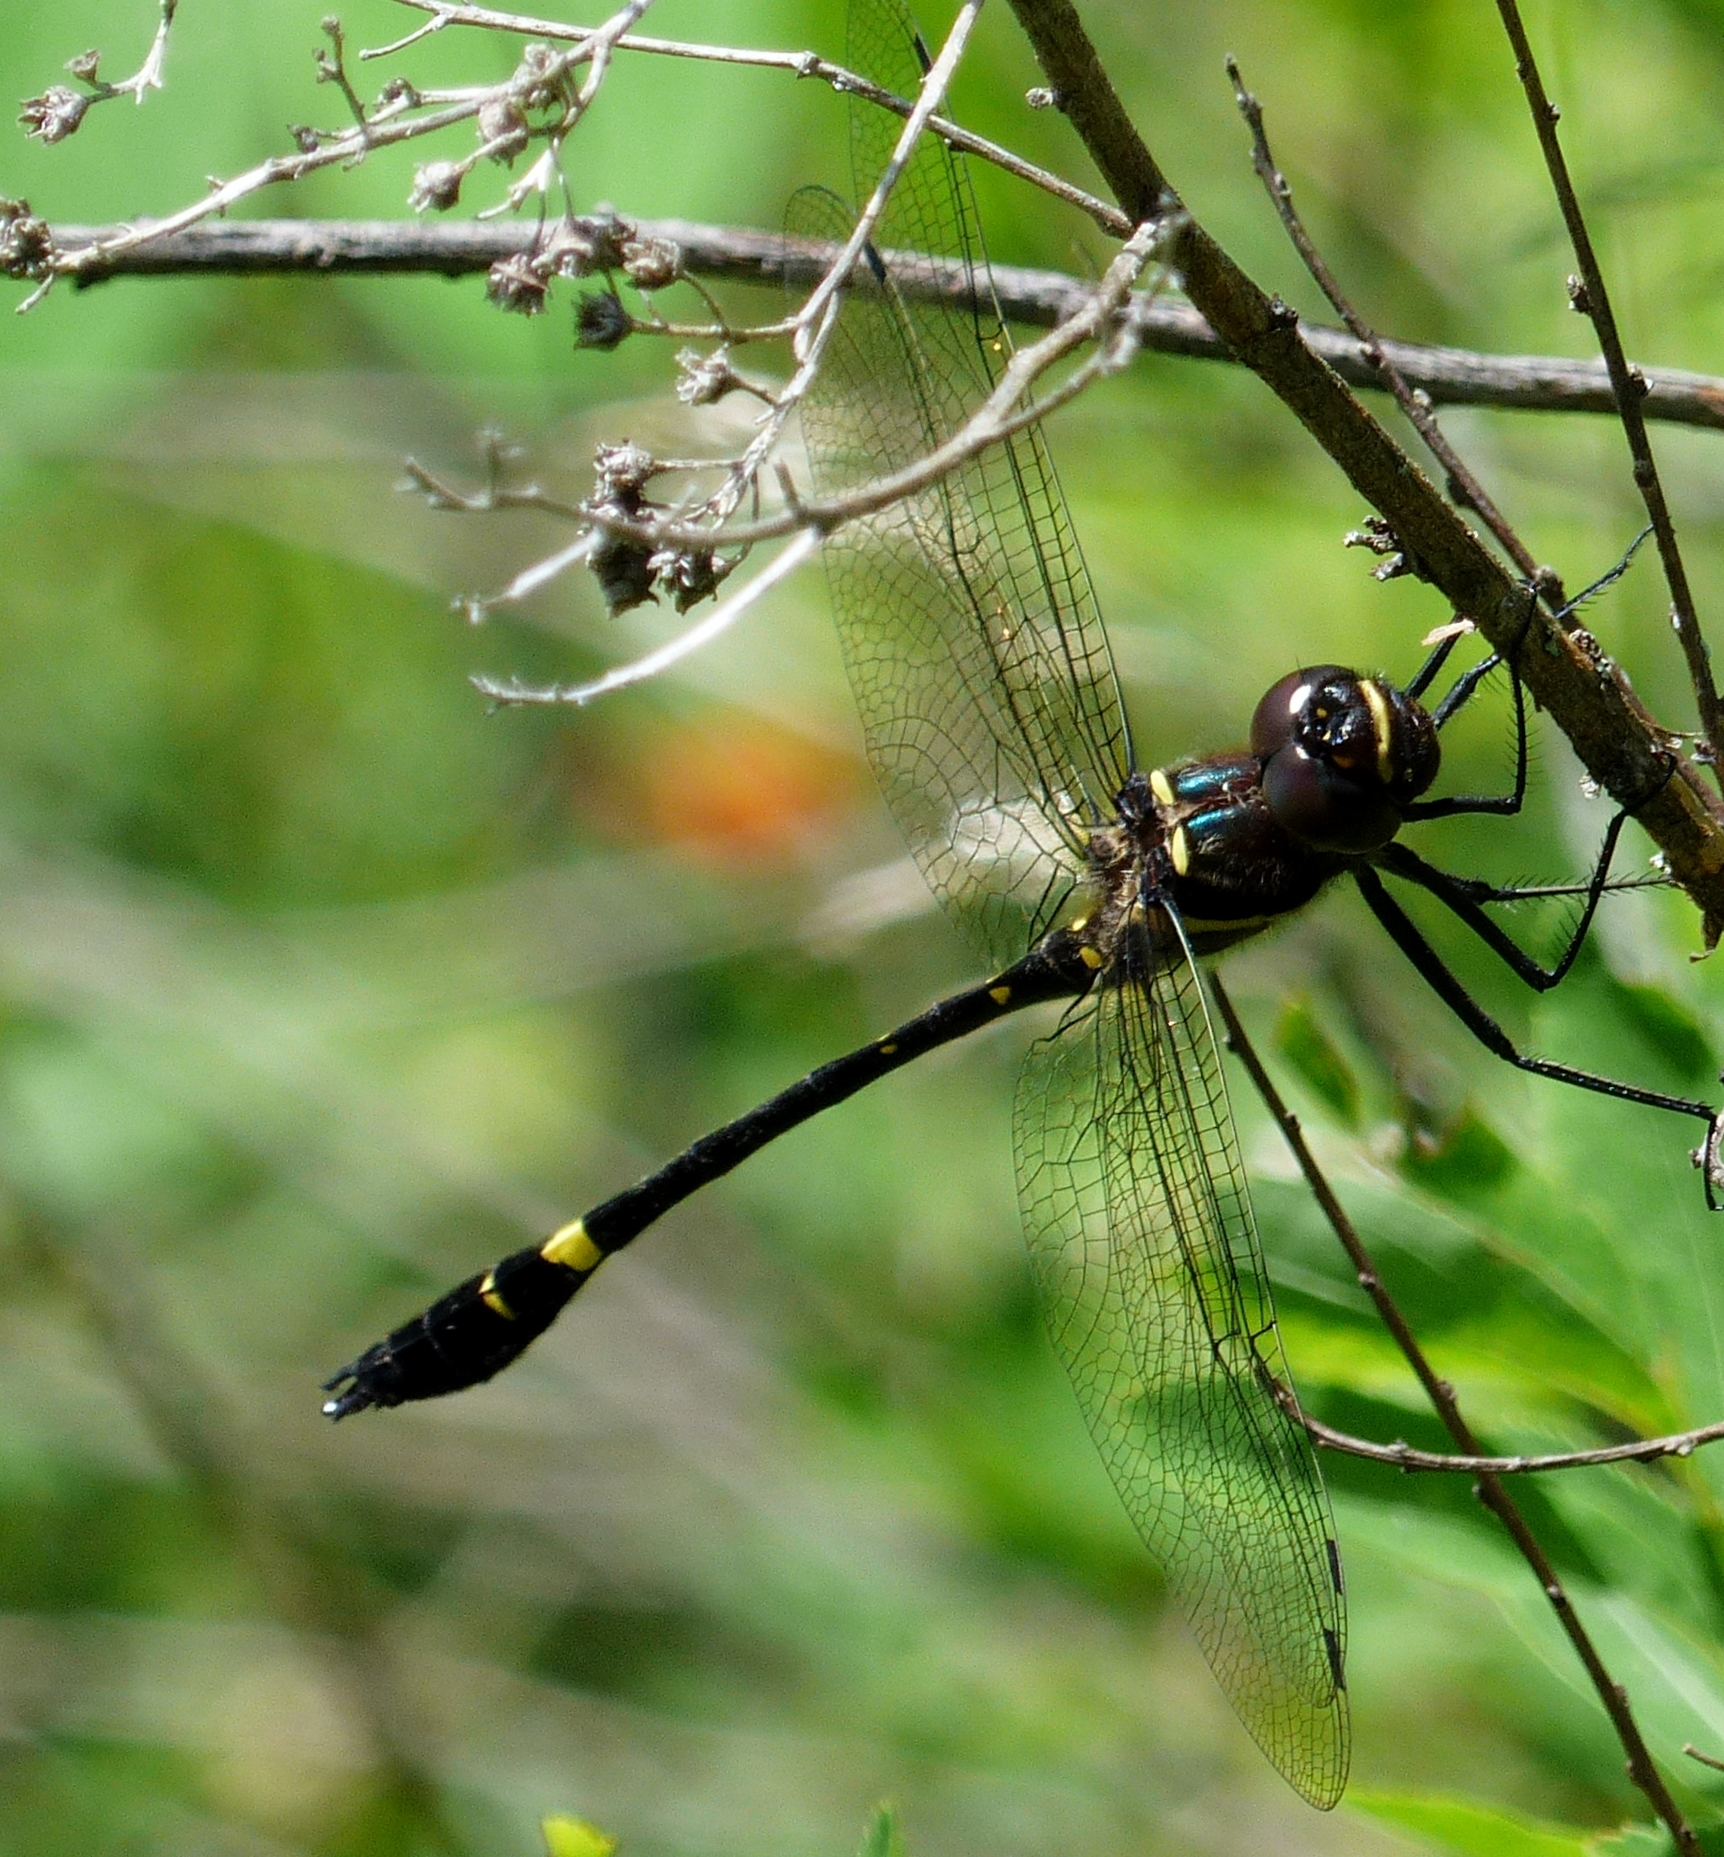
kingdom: Animalia
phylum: Arthropoda
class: Insecta
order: Odonata
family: Macromiidae
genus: Macromia
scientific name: Macromia illinoiensis
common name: Swift river cruiser
